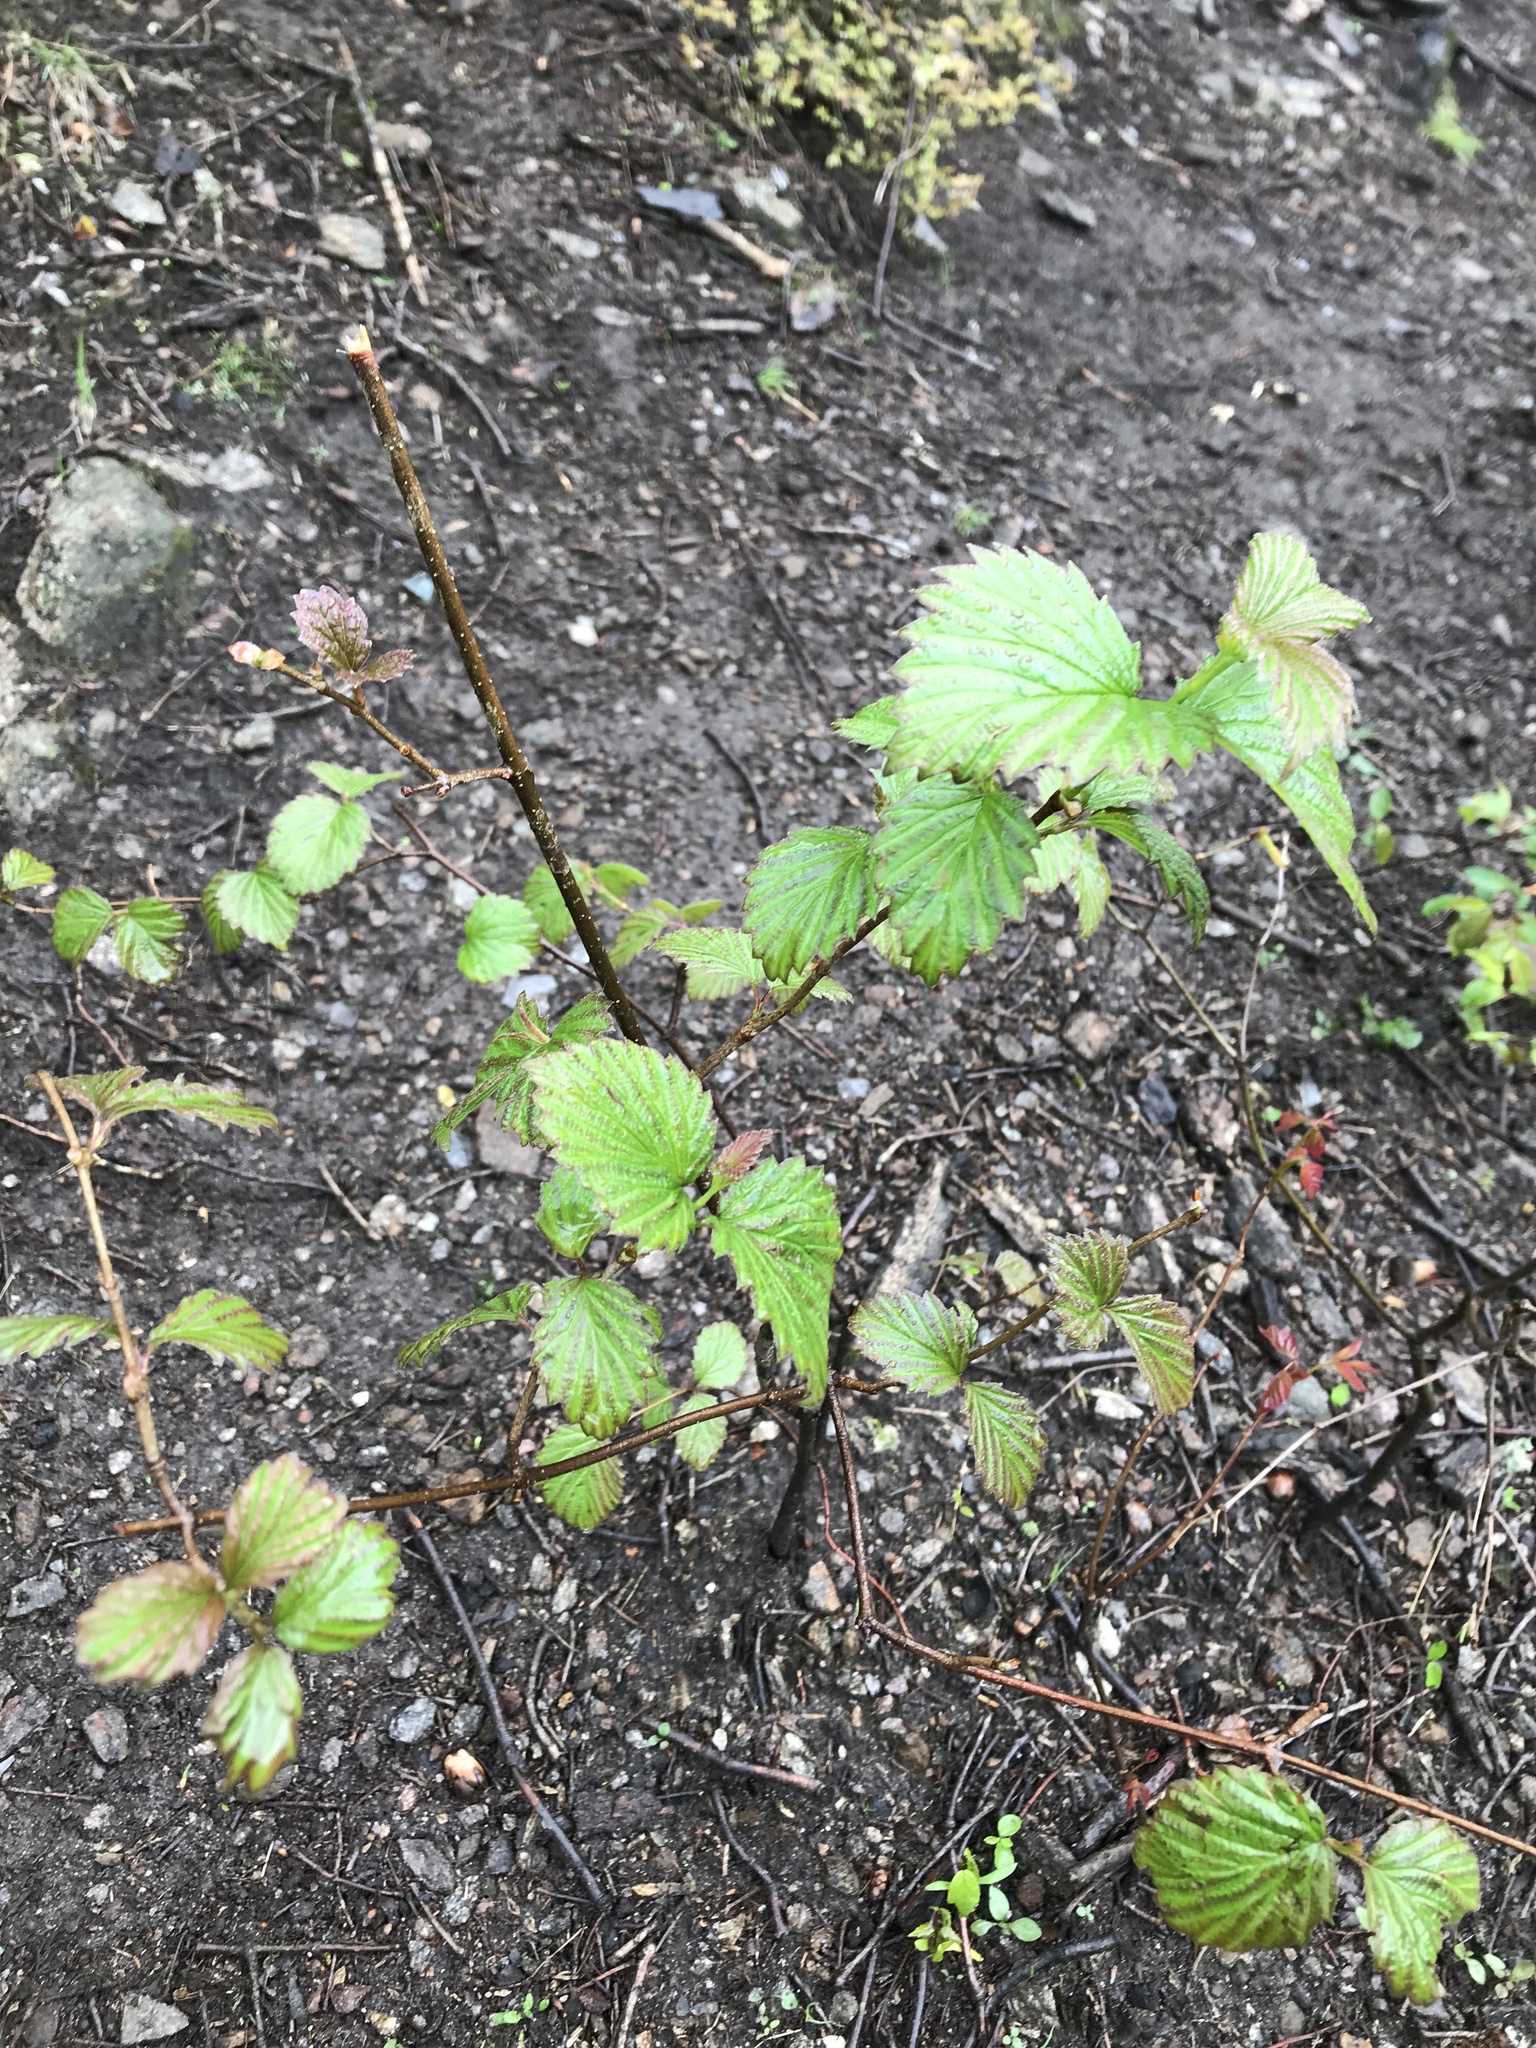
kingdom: Plantae
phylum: Tracheophyta
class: Magnoliopsida
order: Dipsacales
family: Viburnaceae
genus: Viburnum
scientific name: Viburnum dentatum
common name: Arrow-wood
